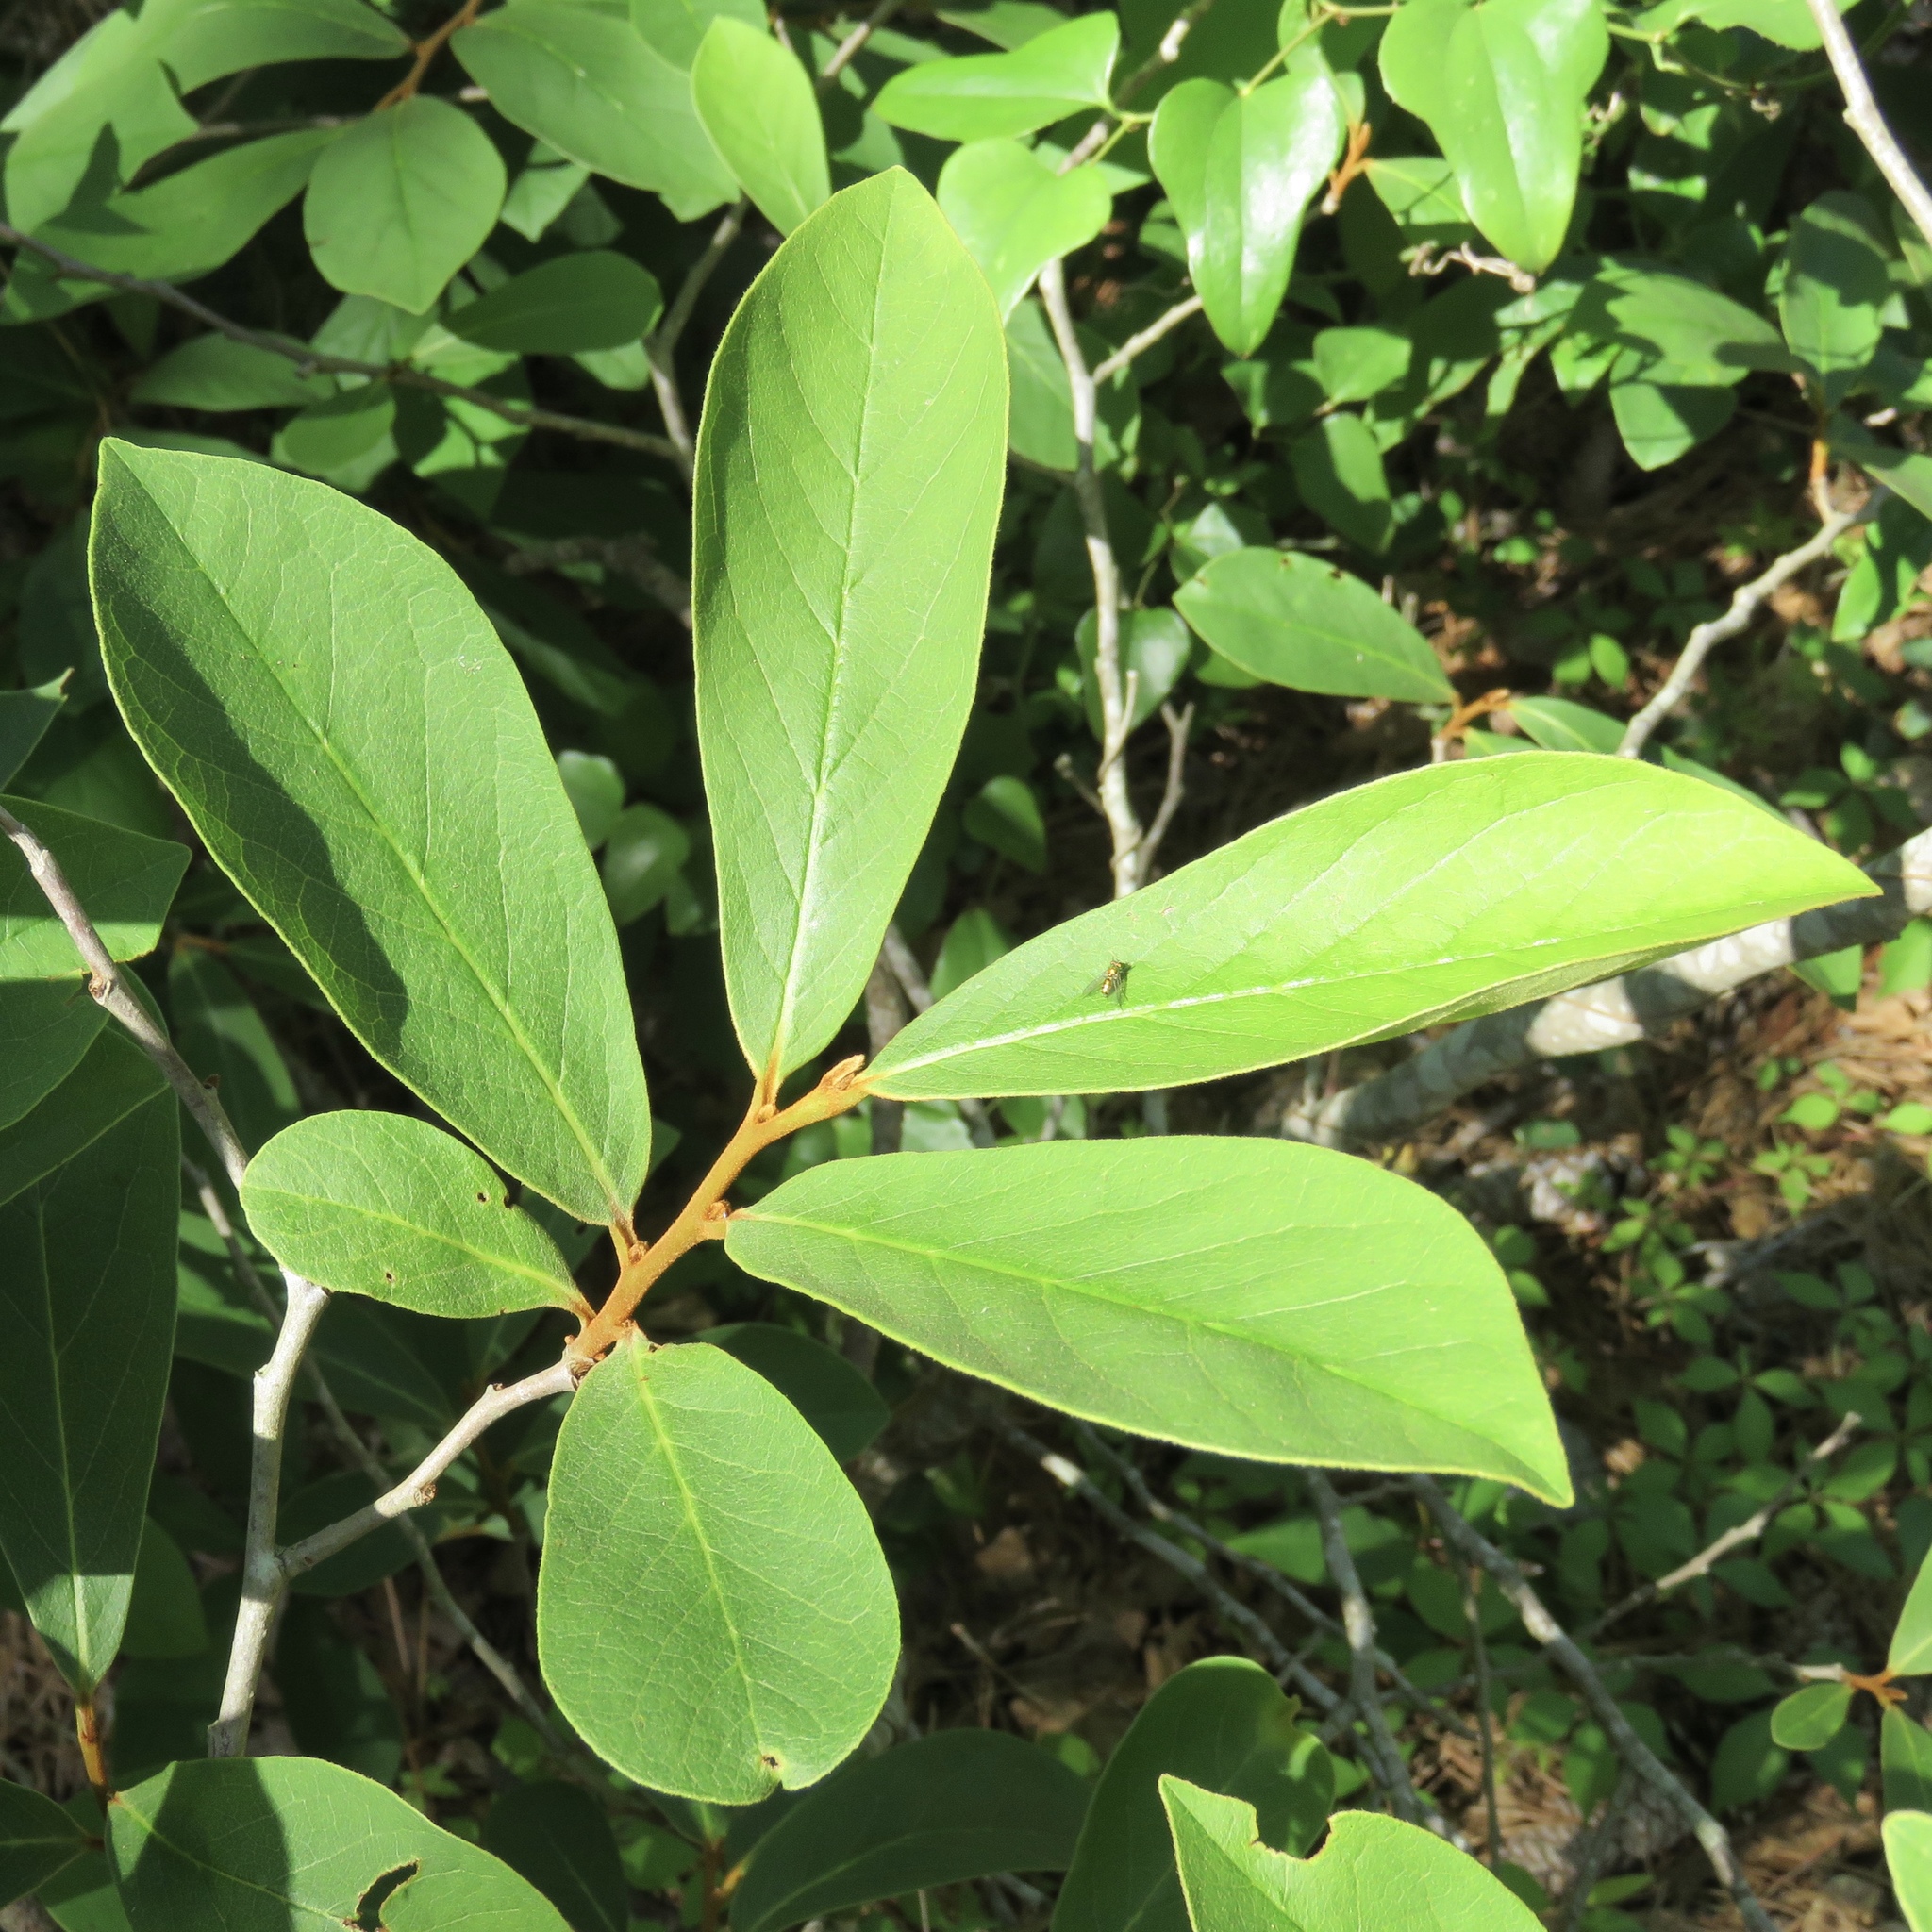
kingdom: Plantae
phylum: Tracheophyta
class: Magnoliopsida
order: Magnoliales
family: Annonaceae
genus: Asimina
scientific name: Asimina parviflora
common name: Dwarf pawpaw
